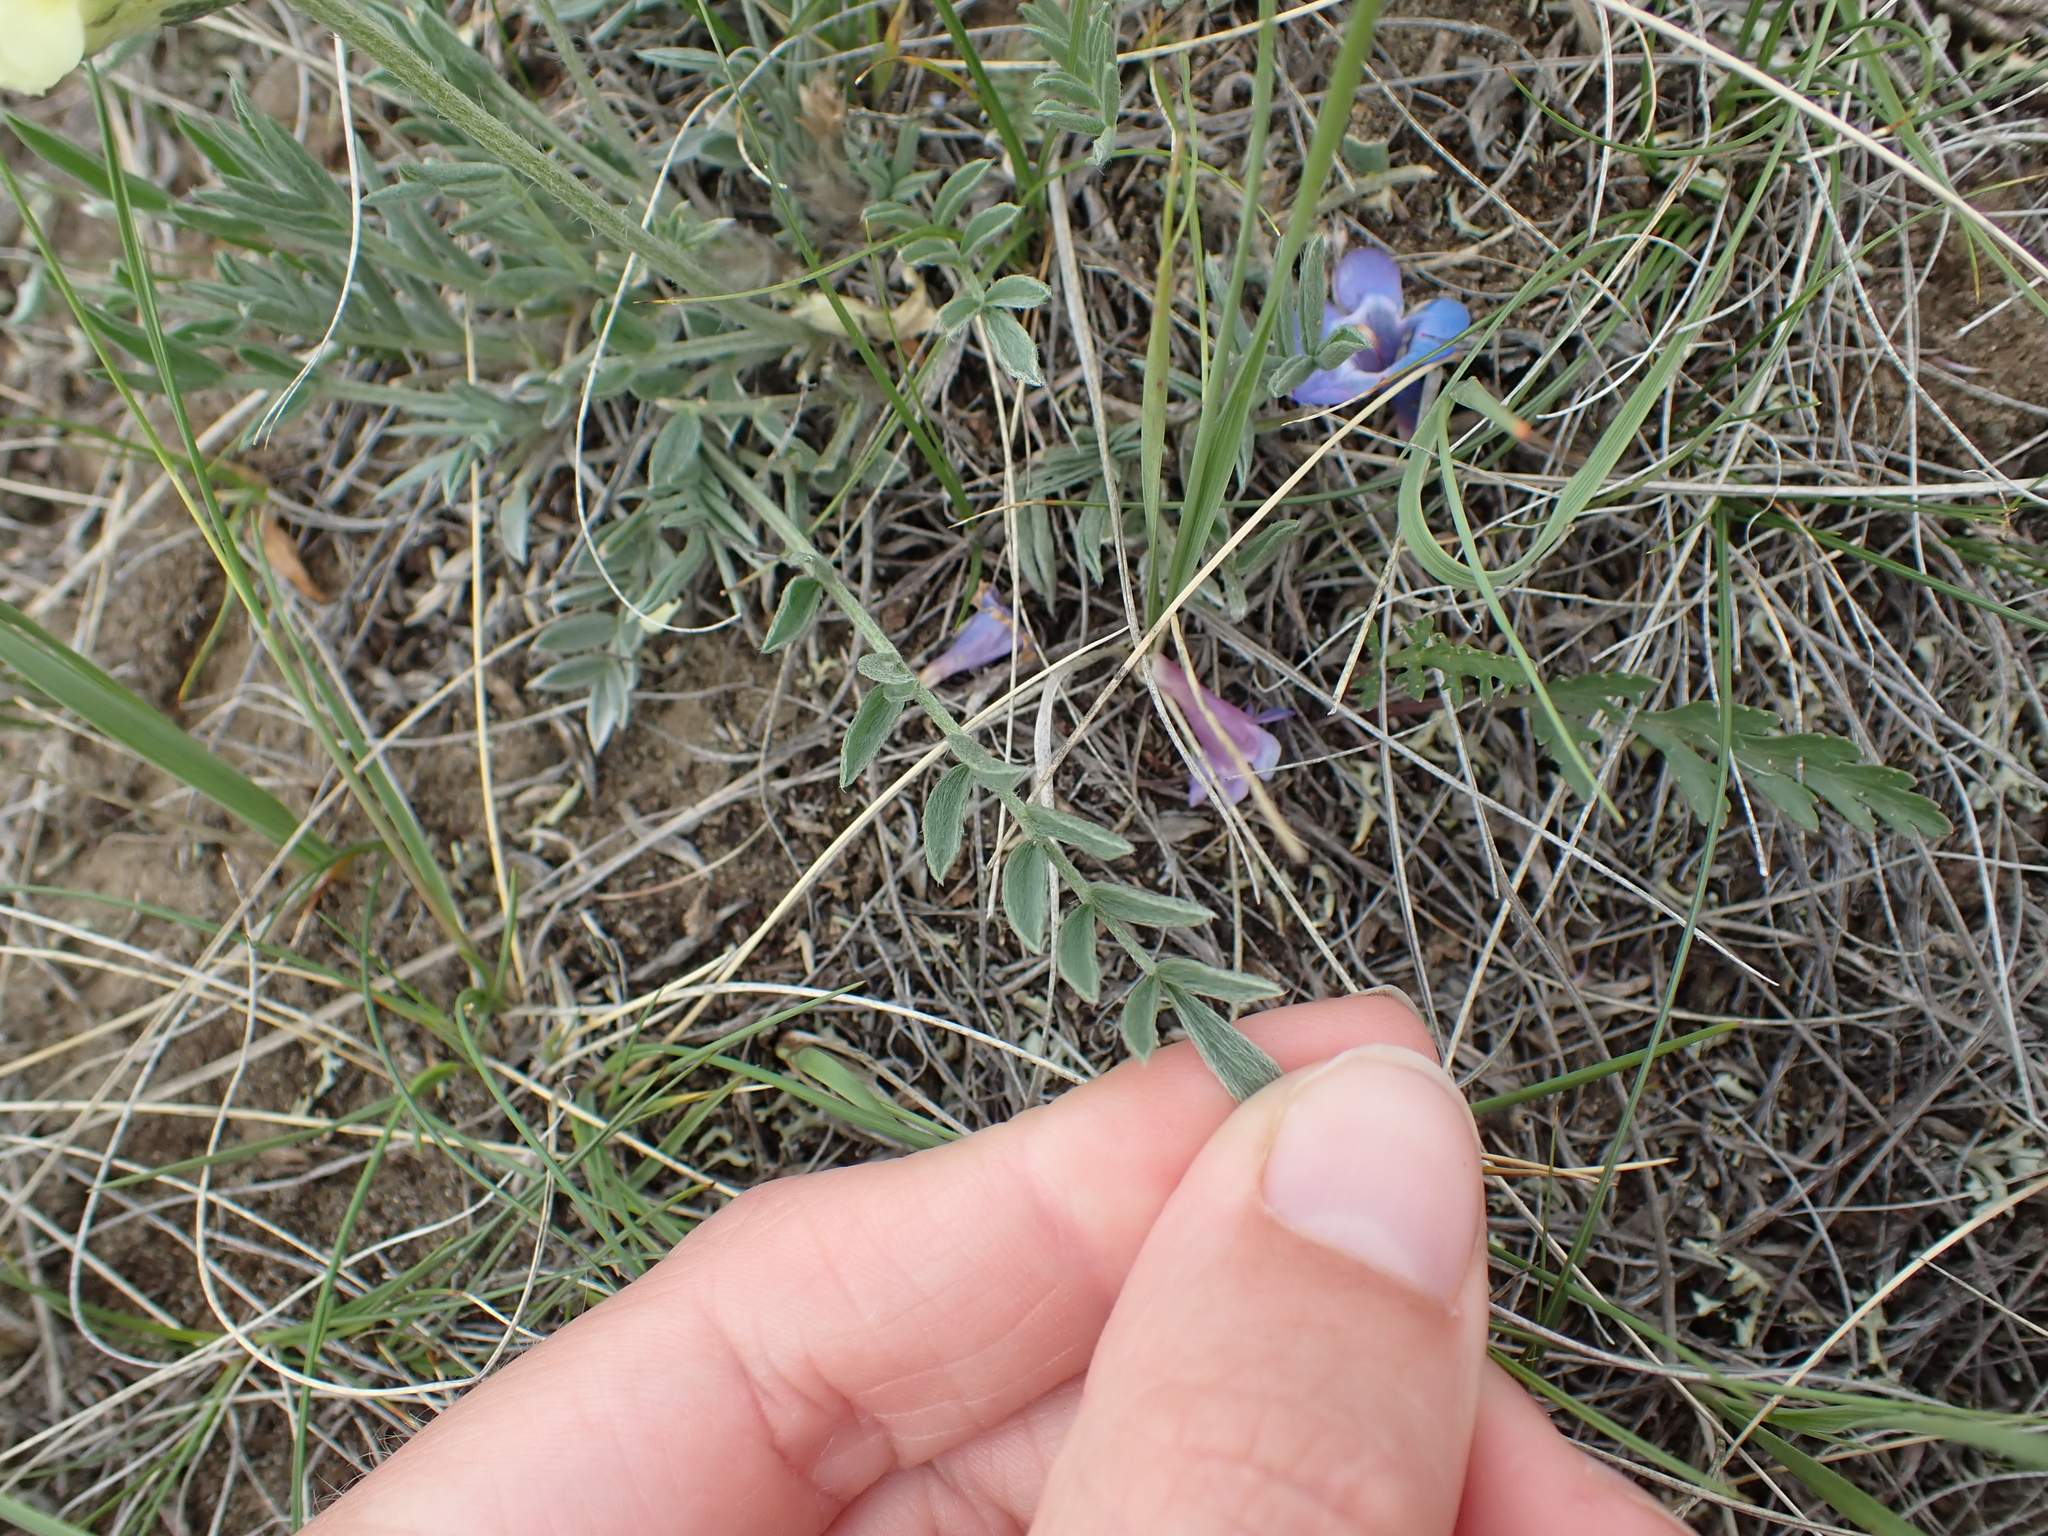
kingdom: Plantae
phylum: Tracheophyta
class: Magnoliopsida
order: Fabales
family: Fabaceae
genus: Oxytropis
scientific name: Oxytropis sericea
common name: Silky locoweed
